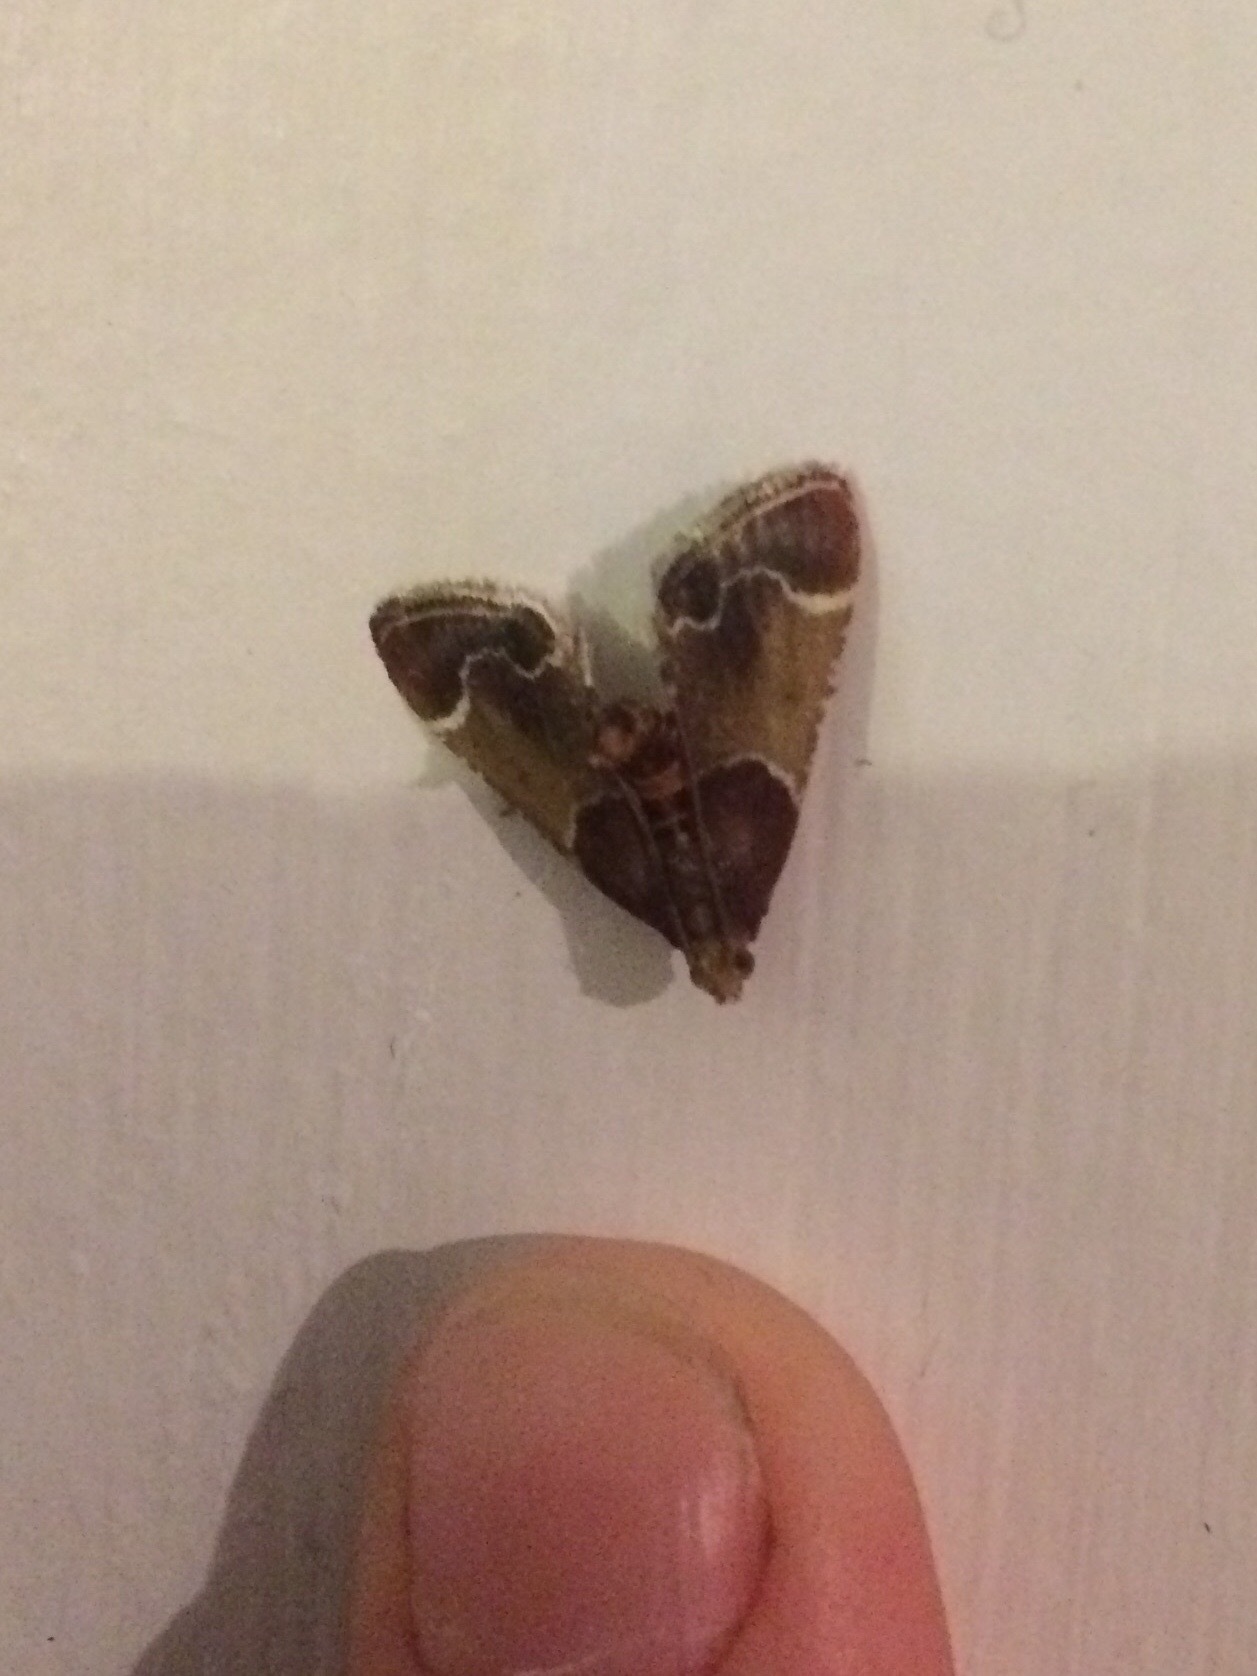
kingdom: Animalia
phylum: Arthropoda
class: Insecta
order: Lepidoptera
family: Pyralidae
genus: Pyralis
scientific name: Pyralis farinalis
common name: Meal moth
